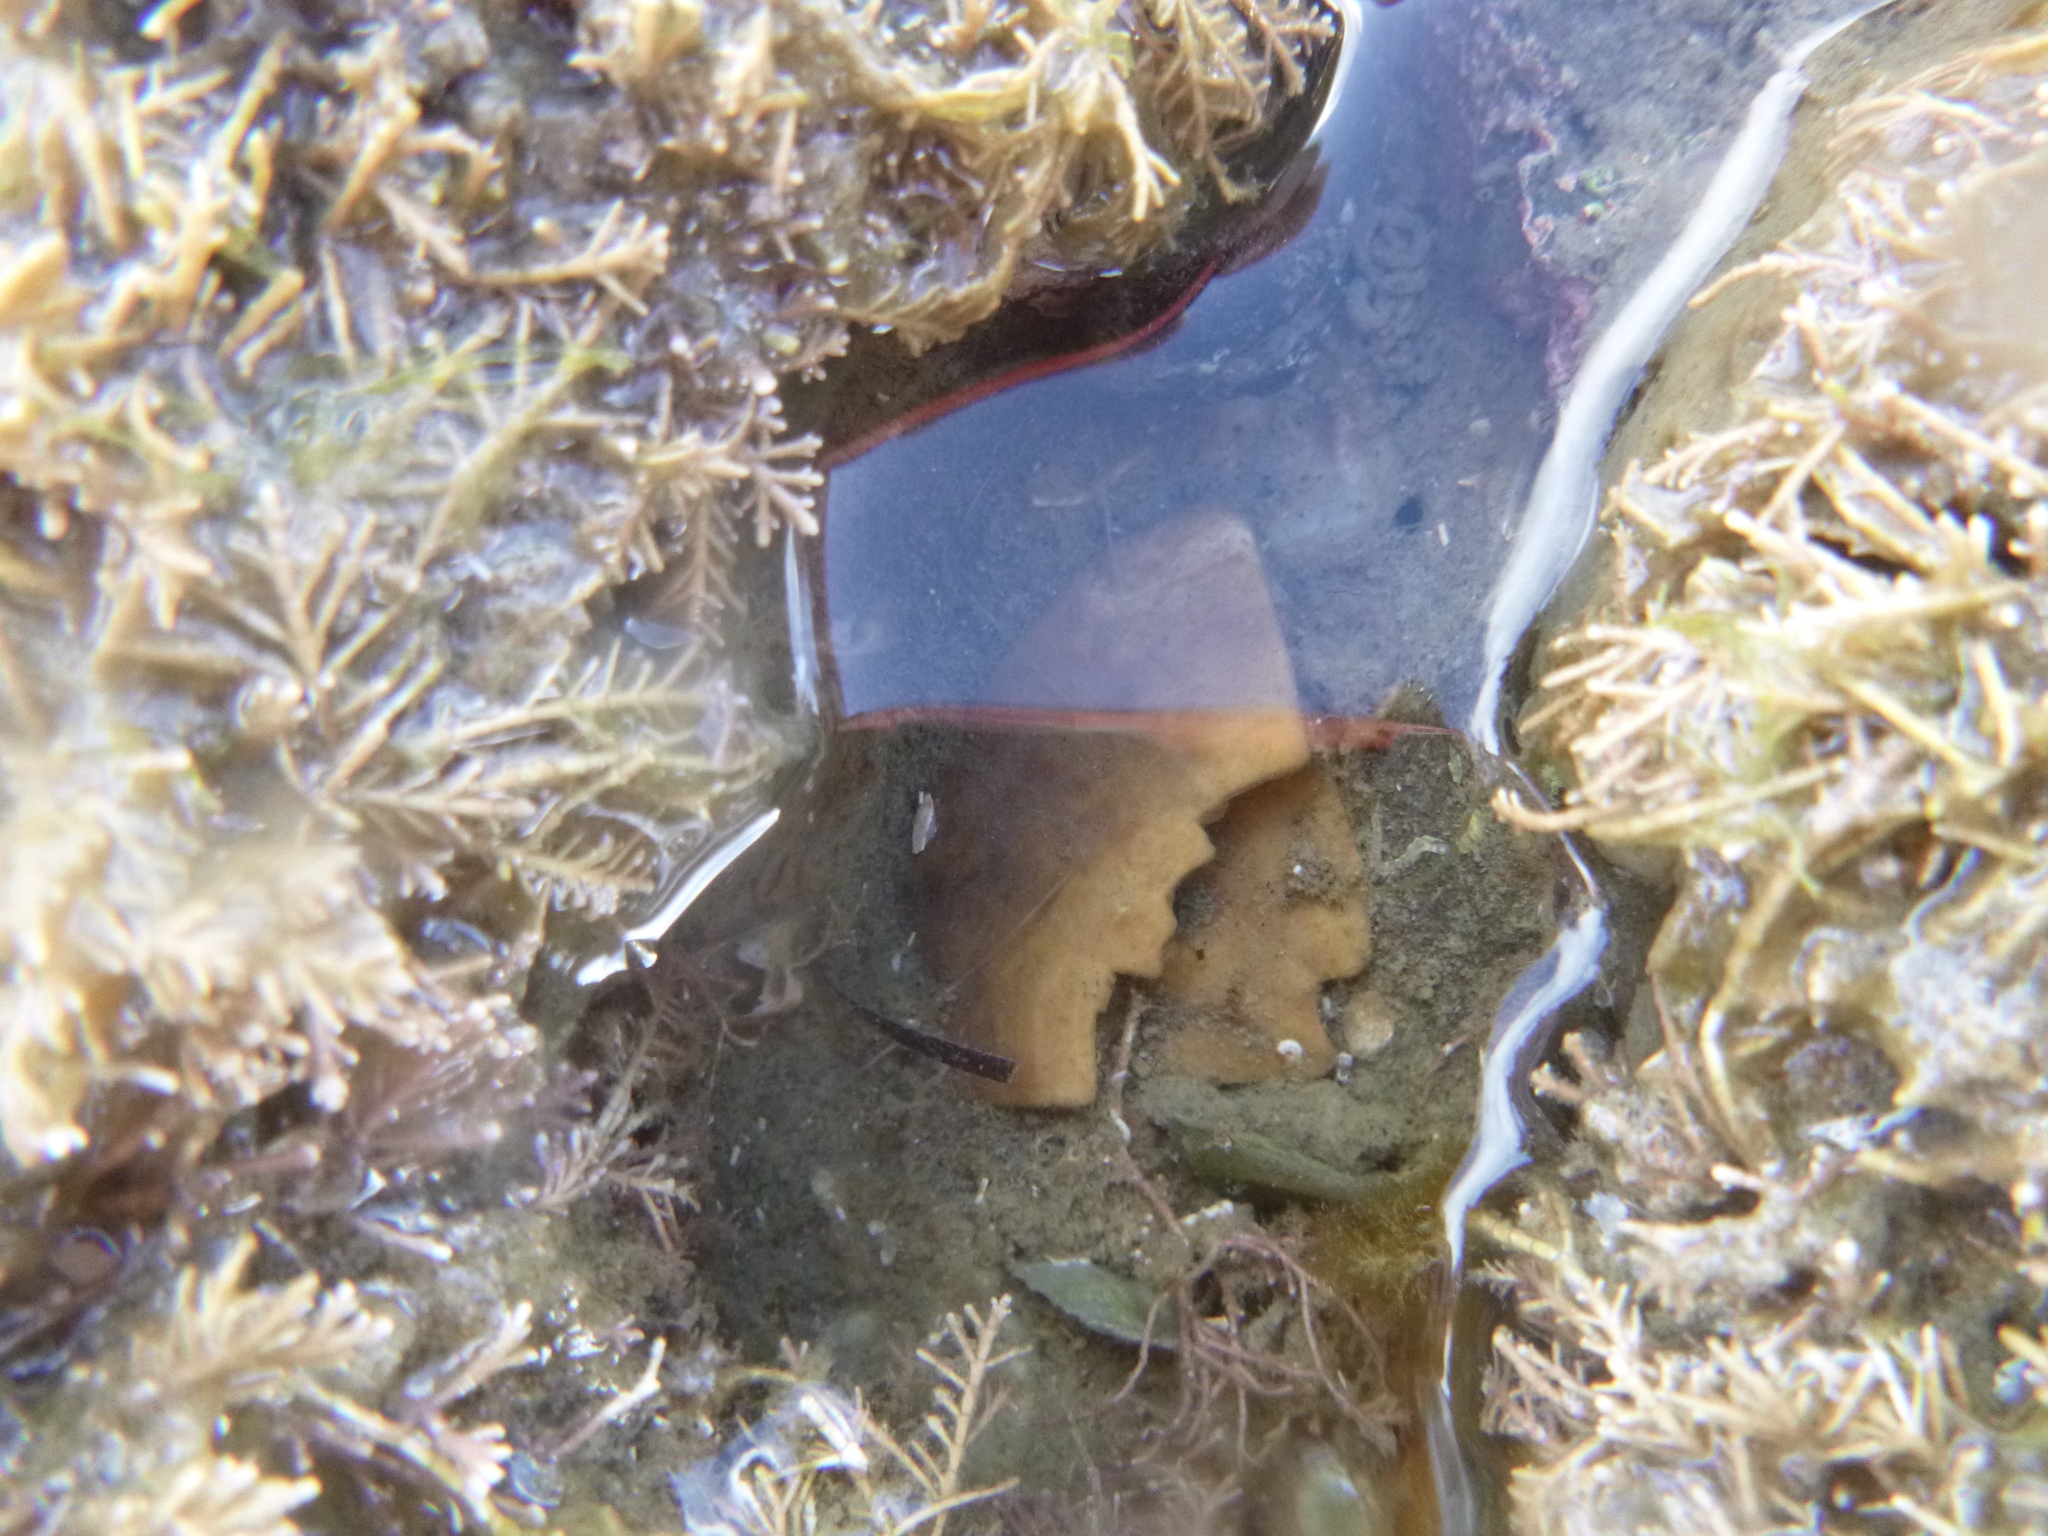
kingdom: Animalia
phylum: Echinodermata
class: Echinoidea
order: Clypeasteroida
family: Clypeasteridae
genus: Fellaster
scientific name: Fellaster zelandiae
